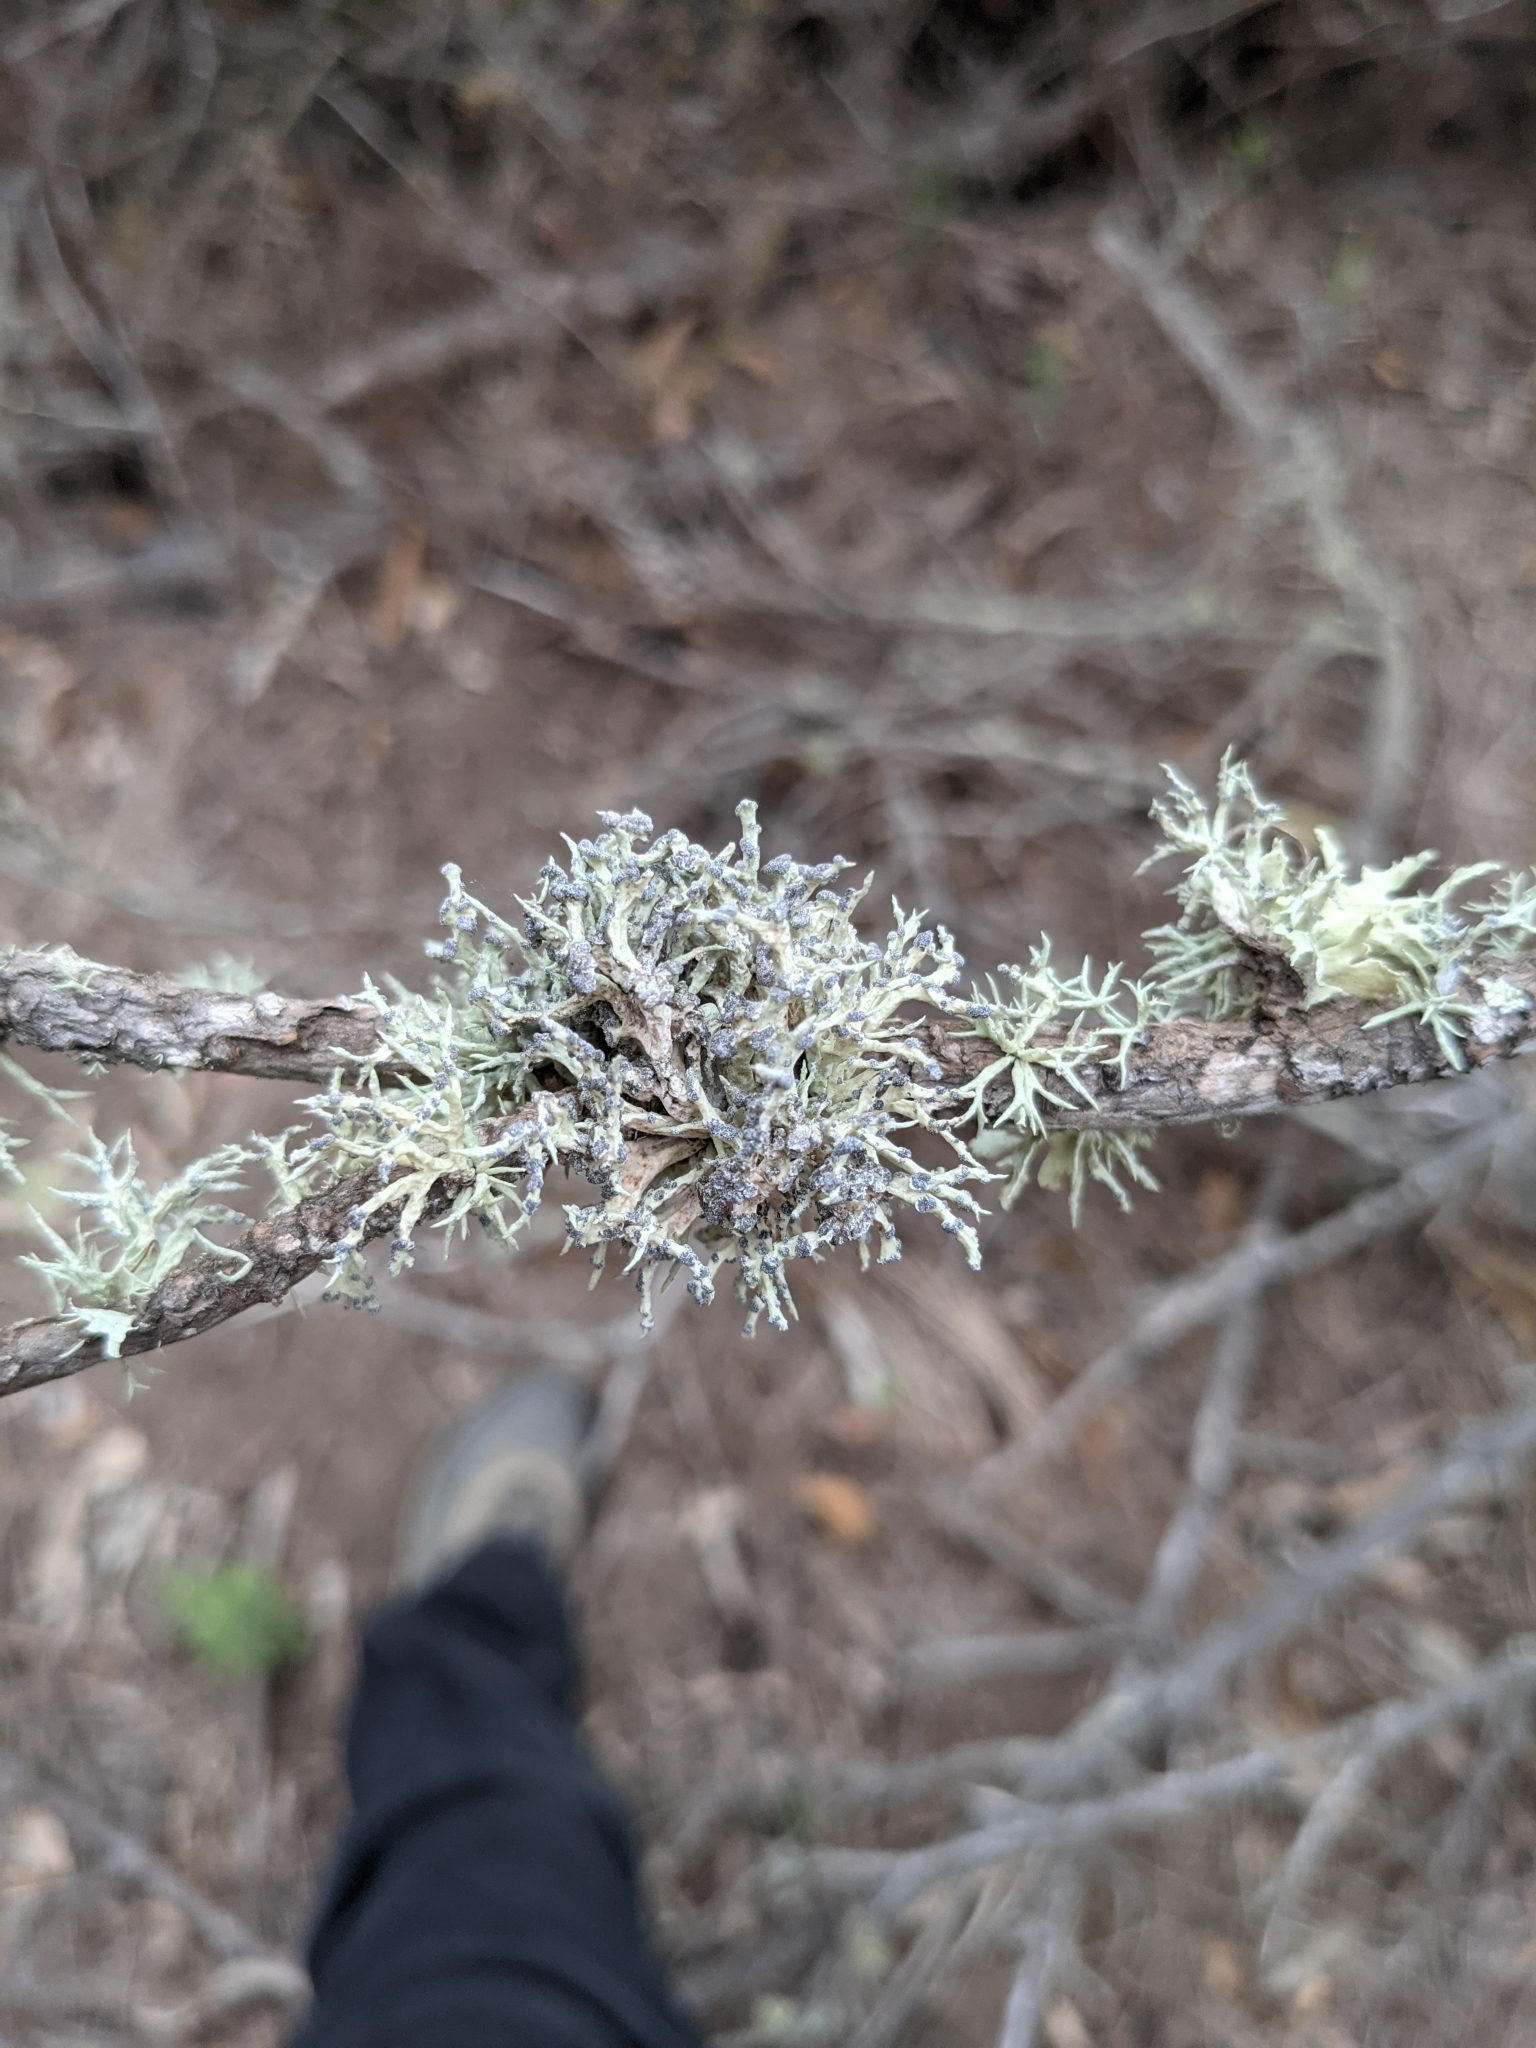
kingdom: Fungi
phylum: Ascomycota
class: Lecanoromycetes
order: Lecanorales
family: Ramalinaceae
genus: Niebla
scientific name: Niebla cephalota
